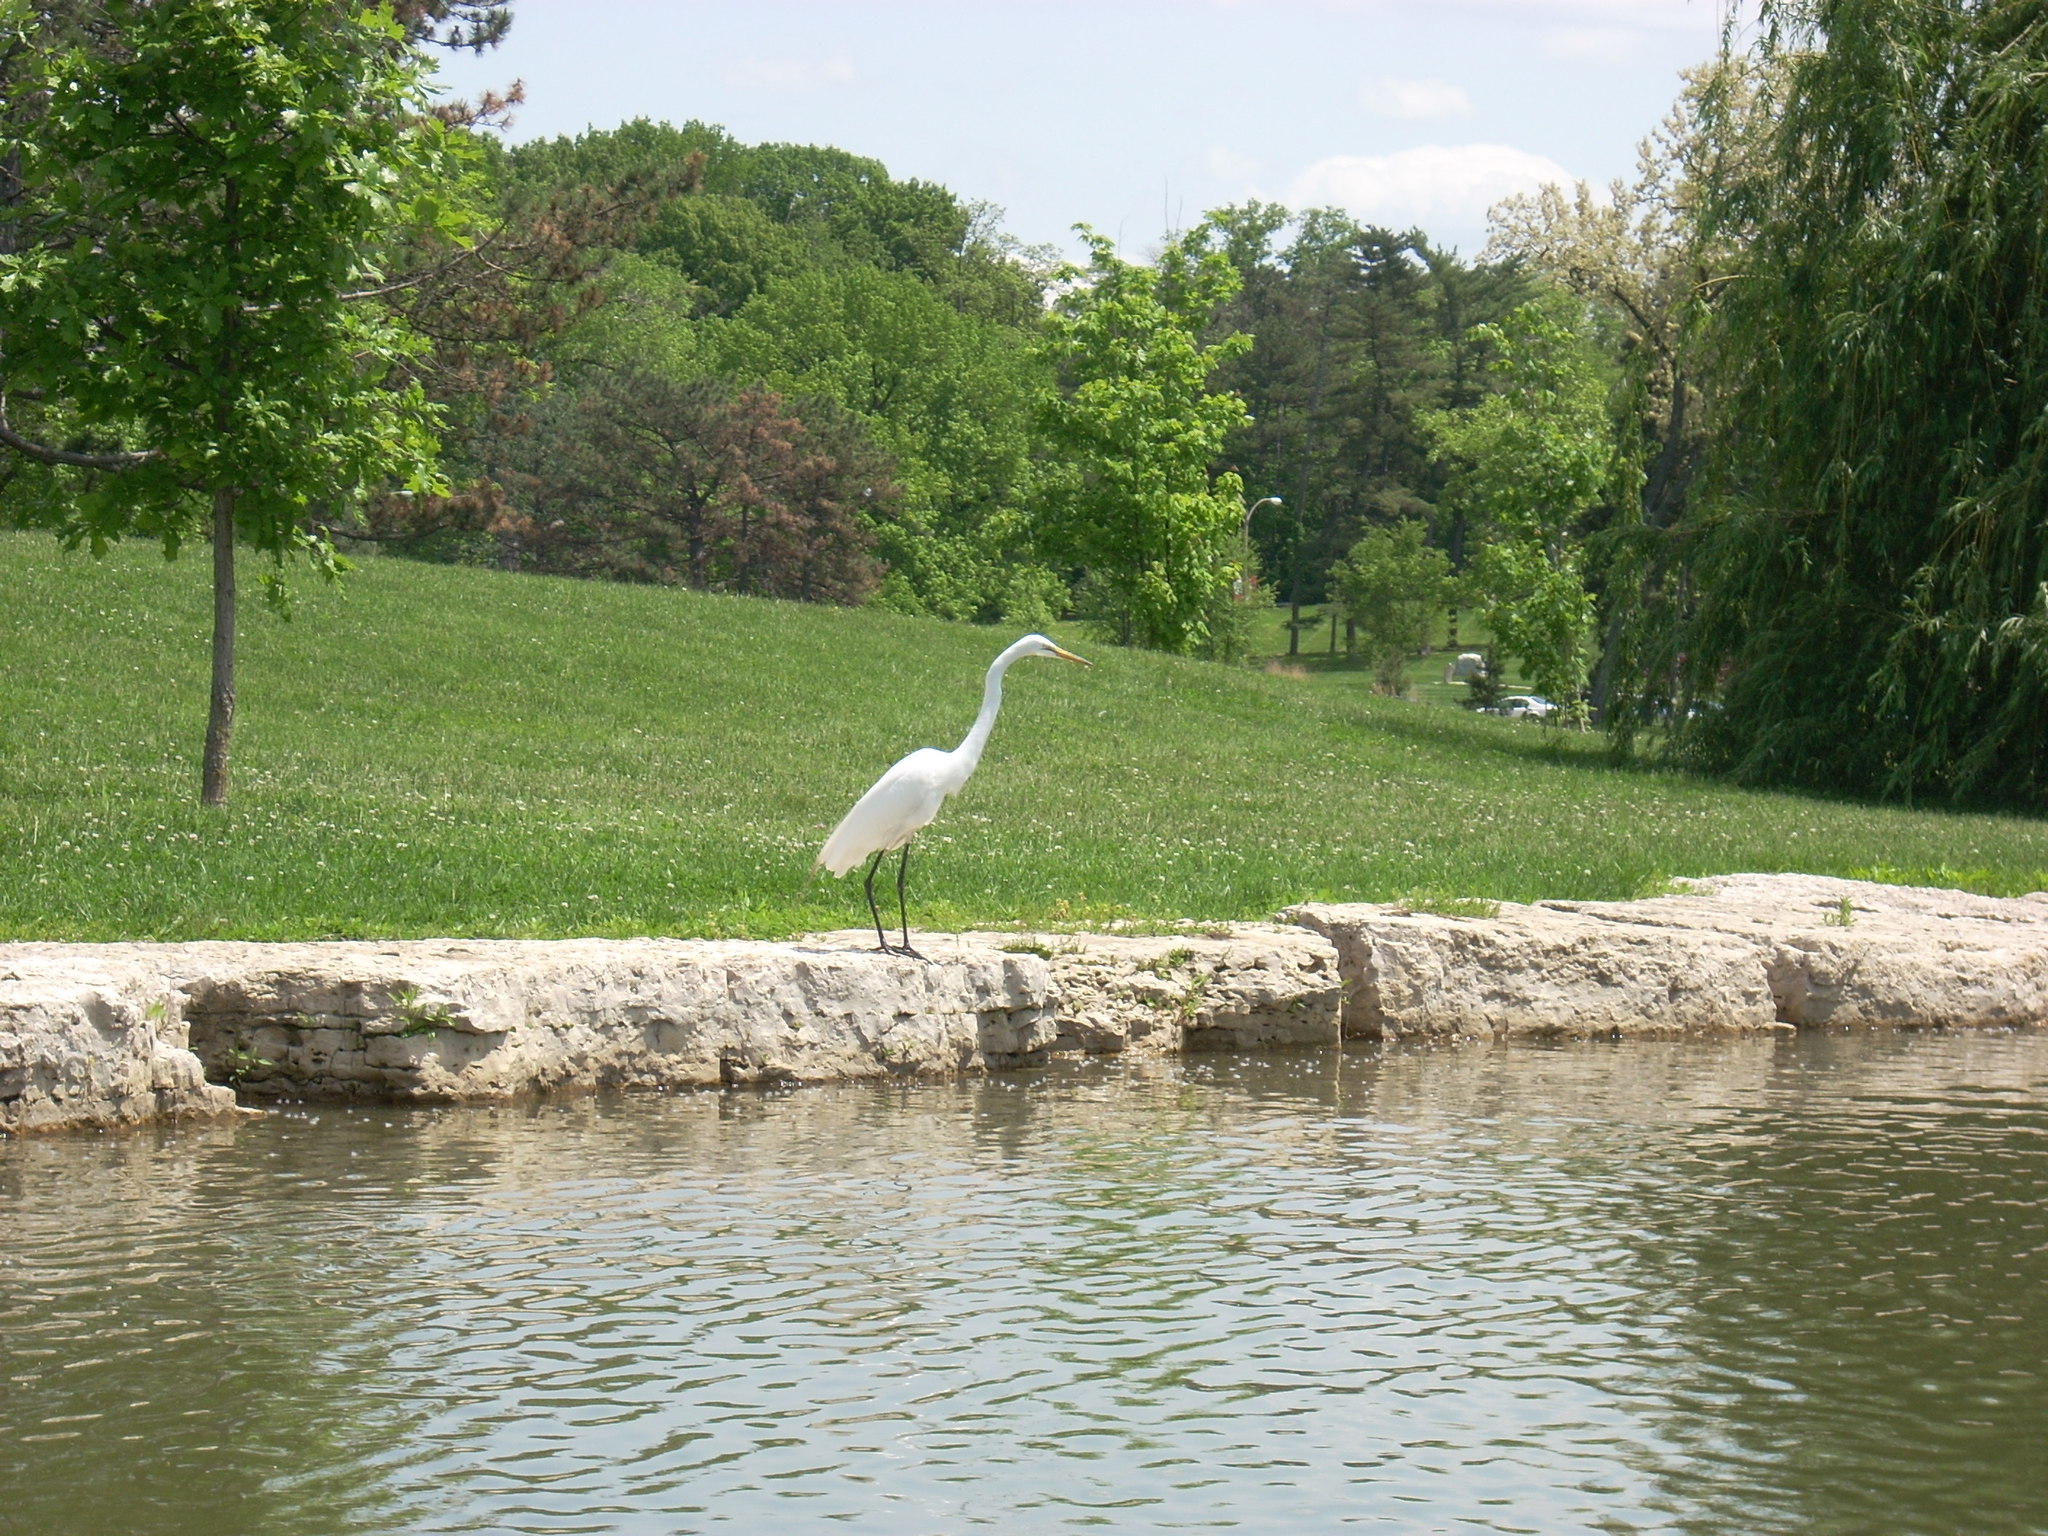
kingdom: Animalia
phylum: Chordata
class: Aves
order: Pelecaniformes
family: Ardeidae
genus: Ardea
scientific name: Ardea alba
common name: Great egret
